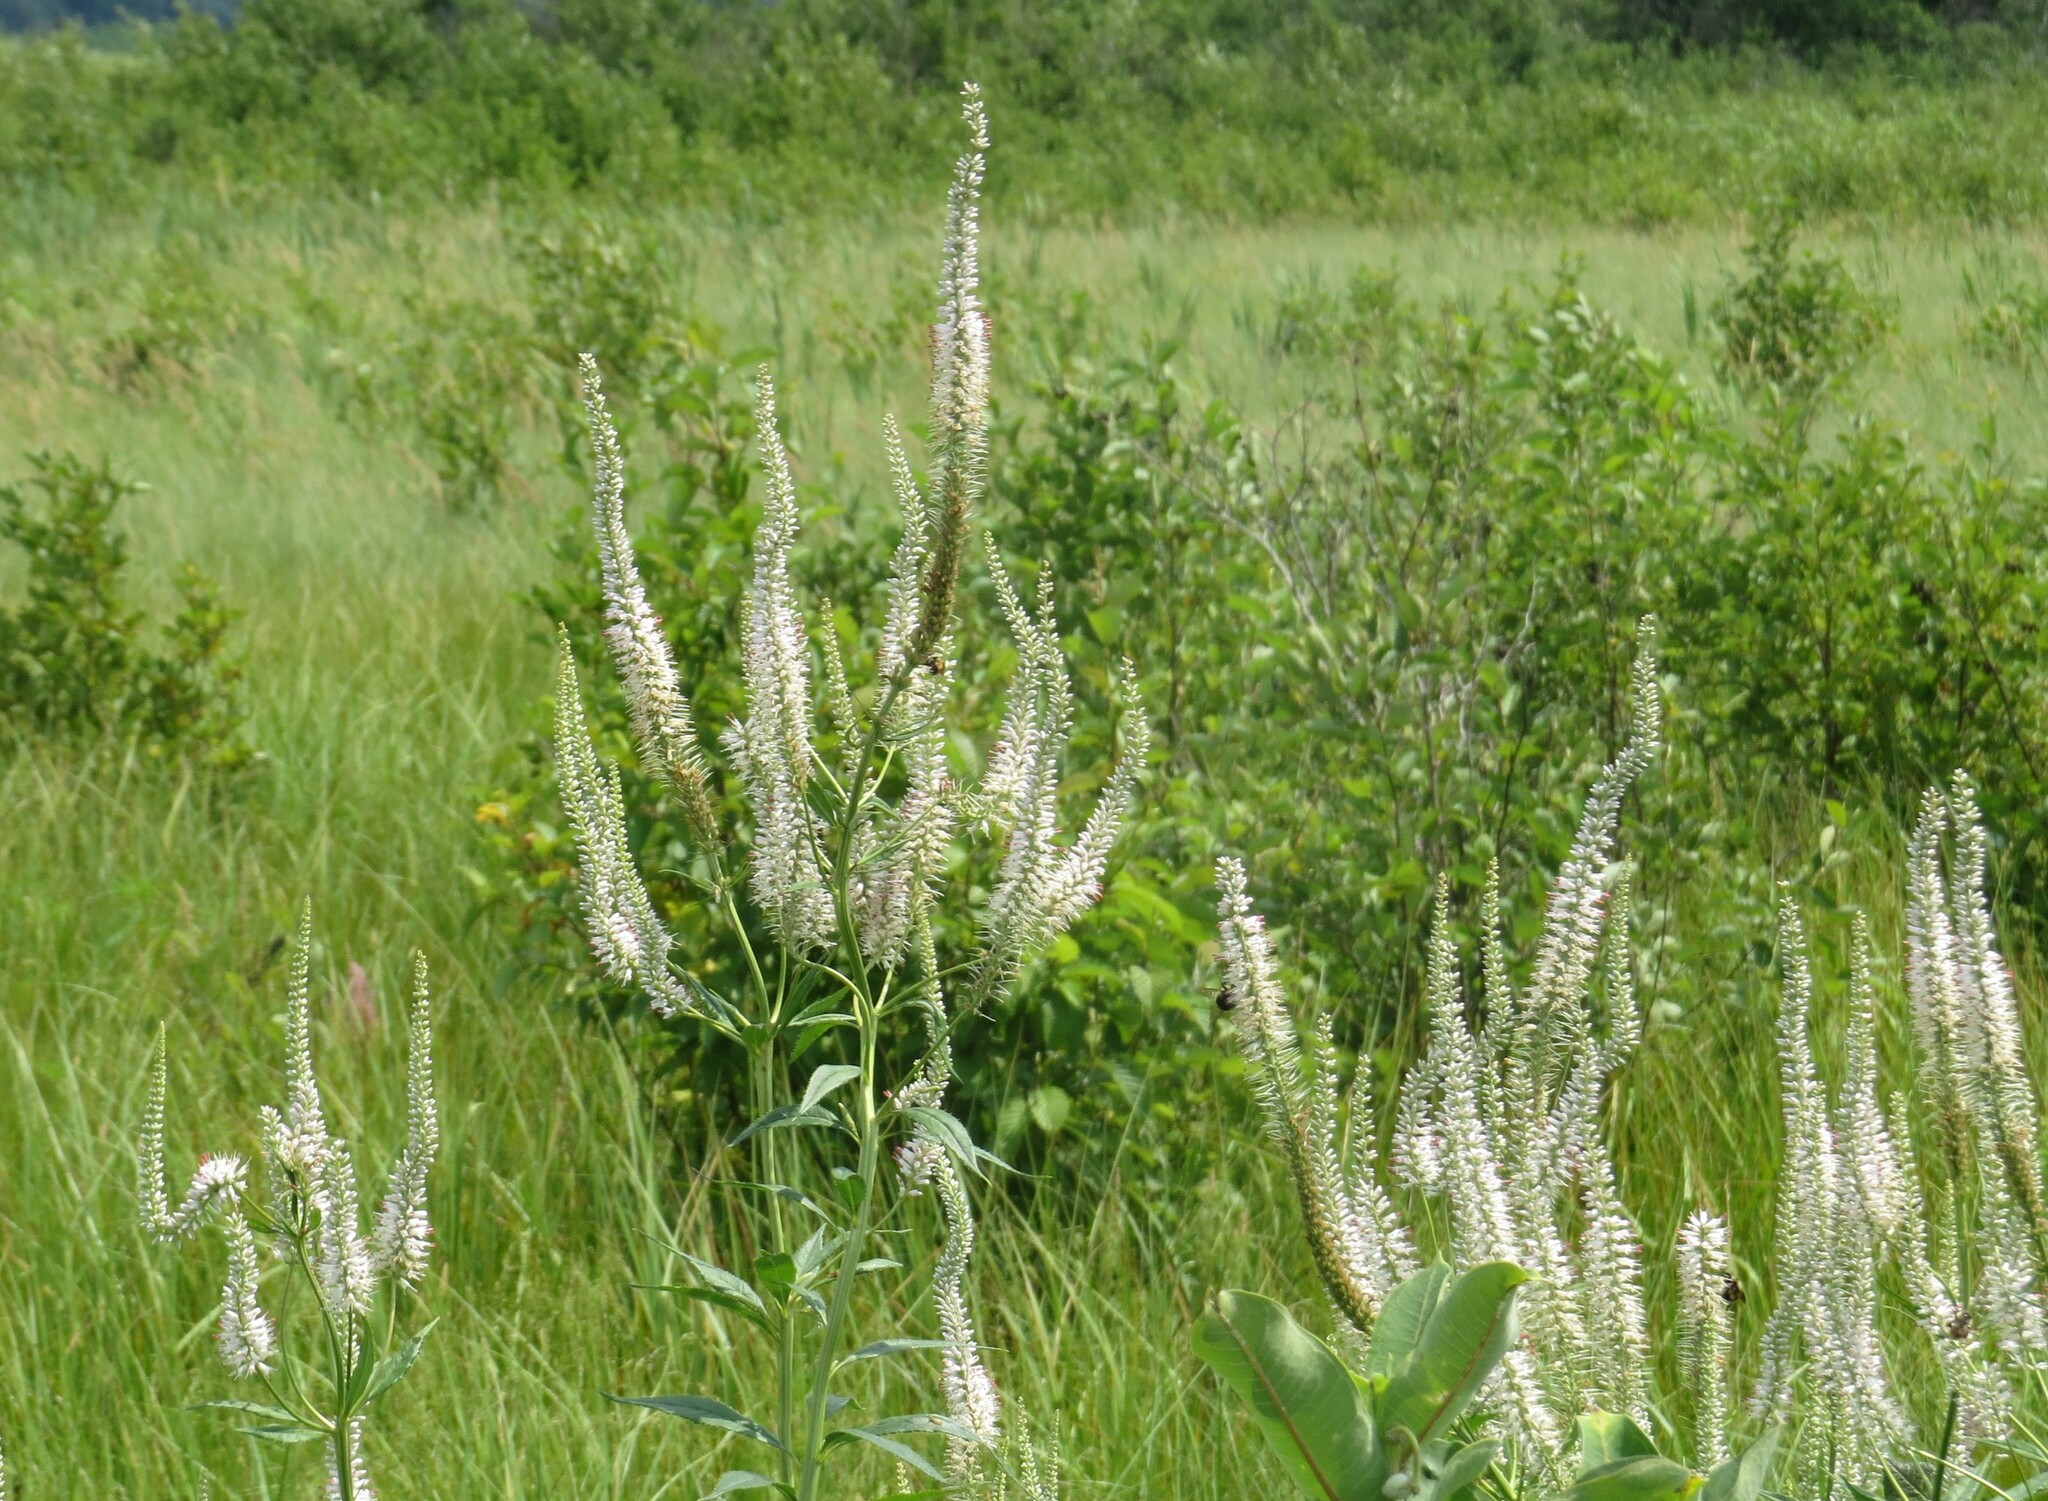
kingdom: Plantae
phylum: Tracheophyta
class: Magnoliopsida
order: Lamiales
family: Plantaginaceae
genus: Veronicastrum
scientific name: Veronicastrum virginicum
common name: Blackroot
